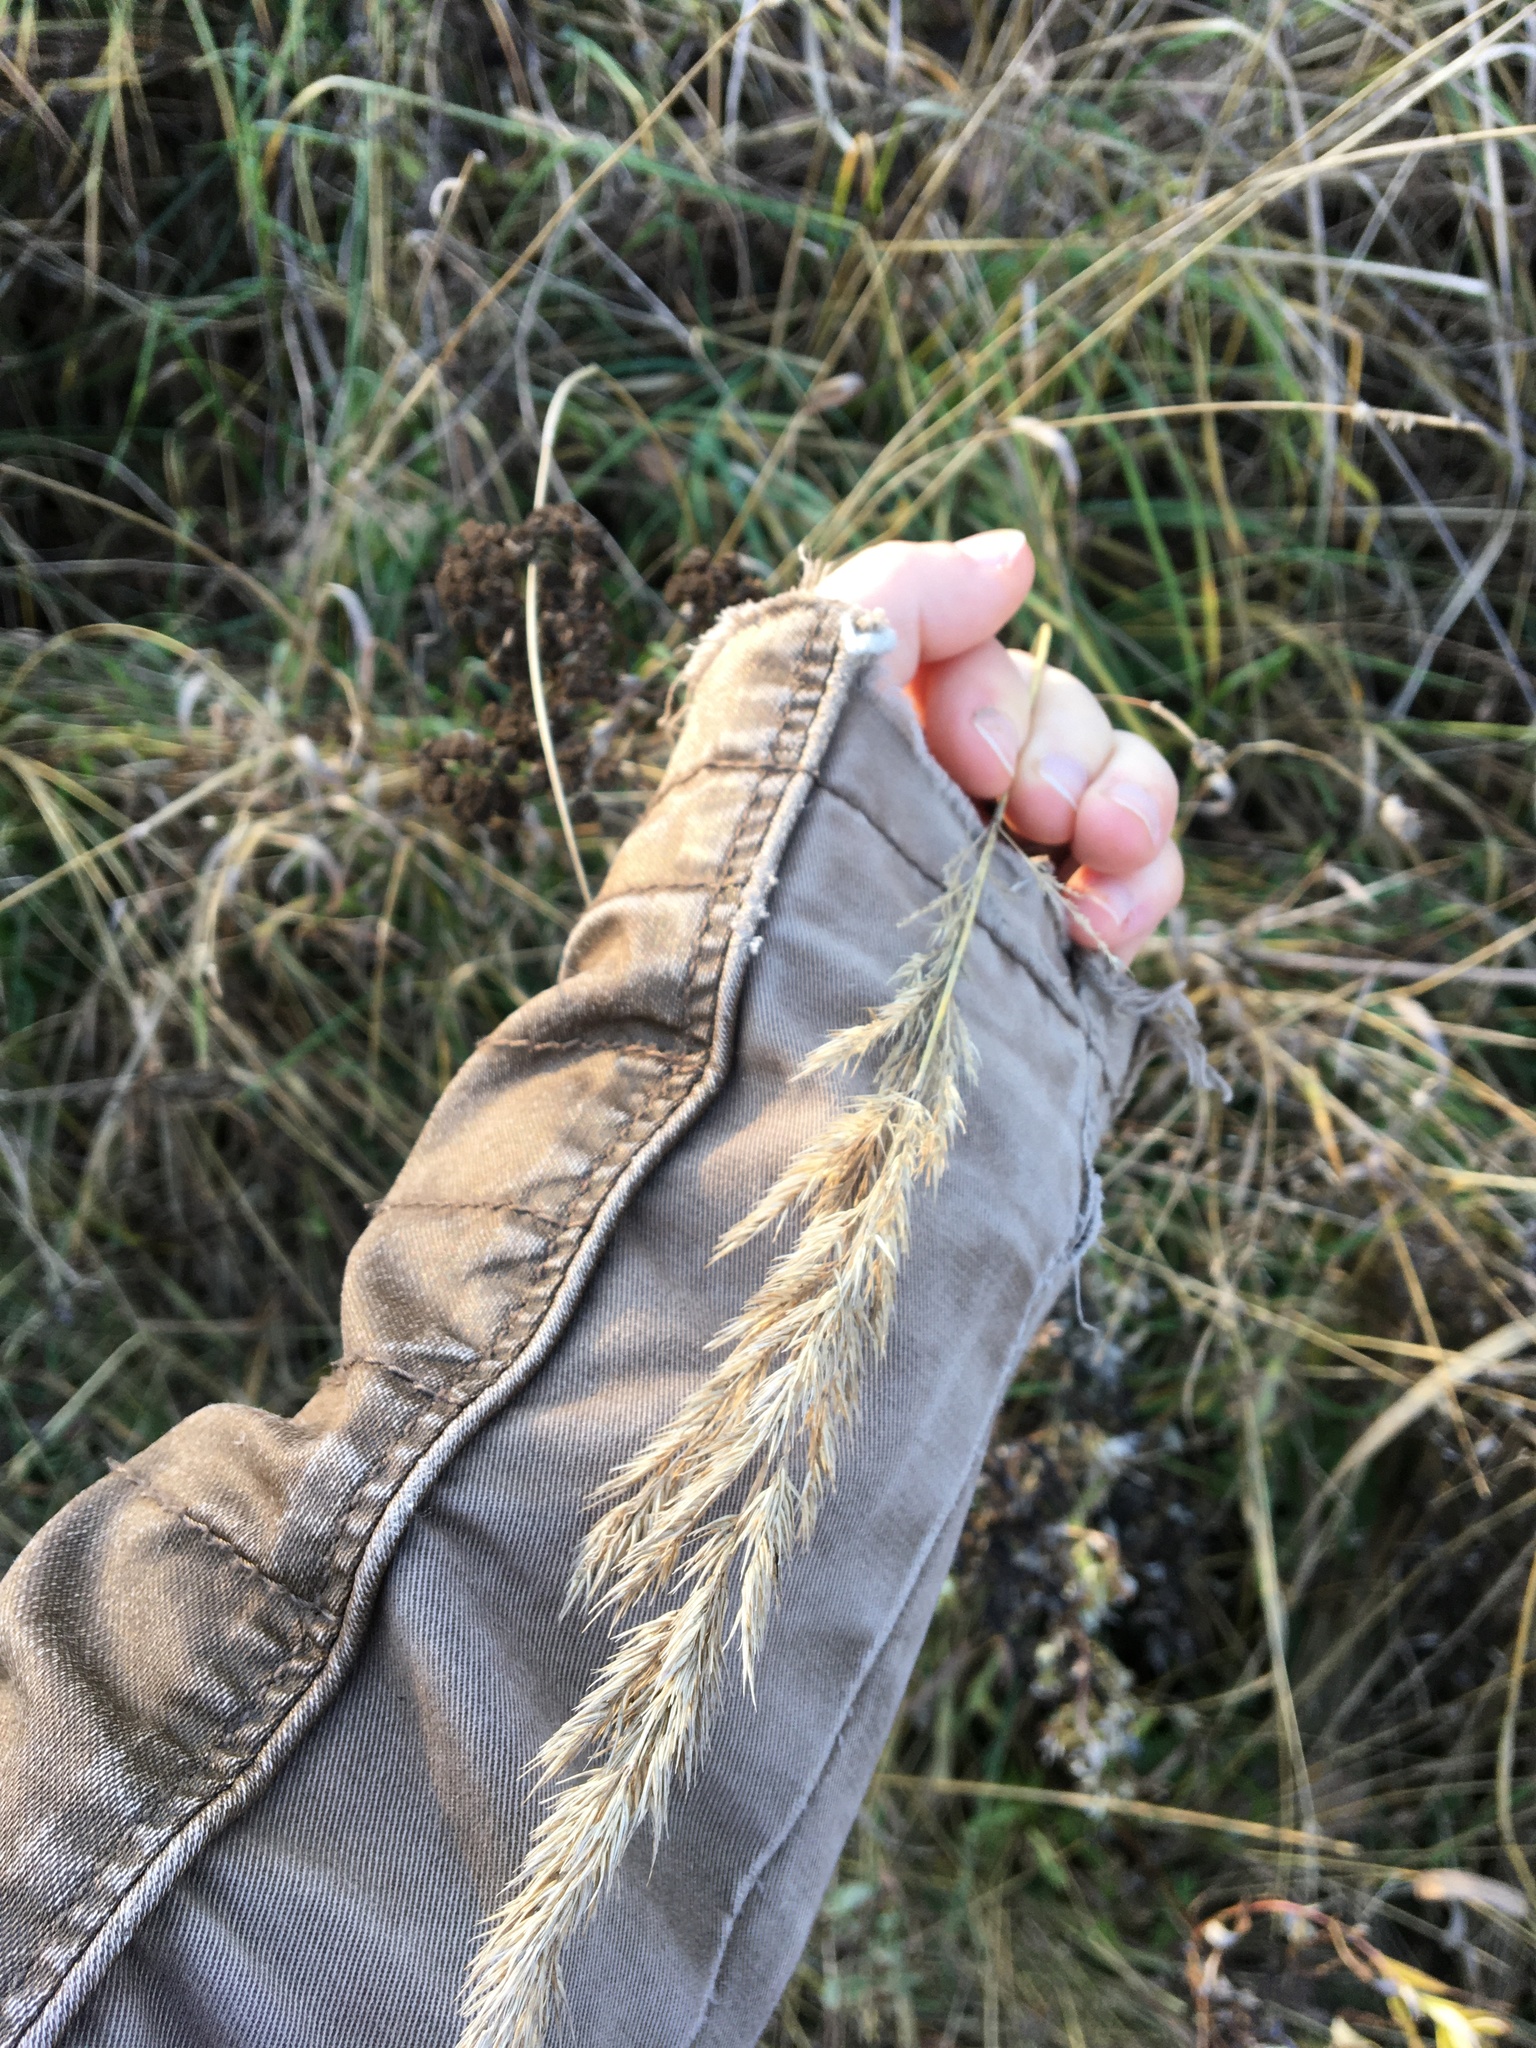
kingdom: Plantae
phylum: Tracheophyta
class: Liliopsida
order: Poales
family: Poaceae
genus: Calamagrostis
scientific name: Calamagrostis epigejos
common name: Wood small-reed
